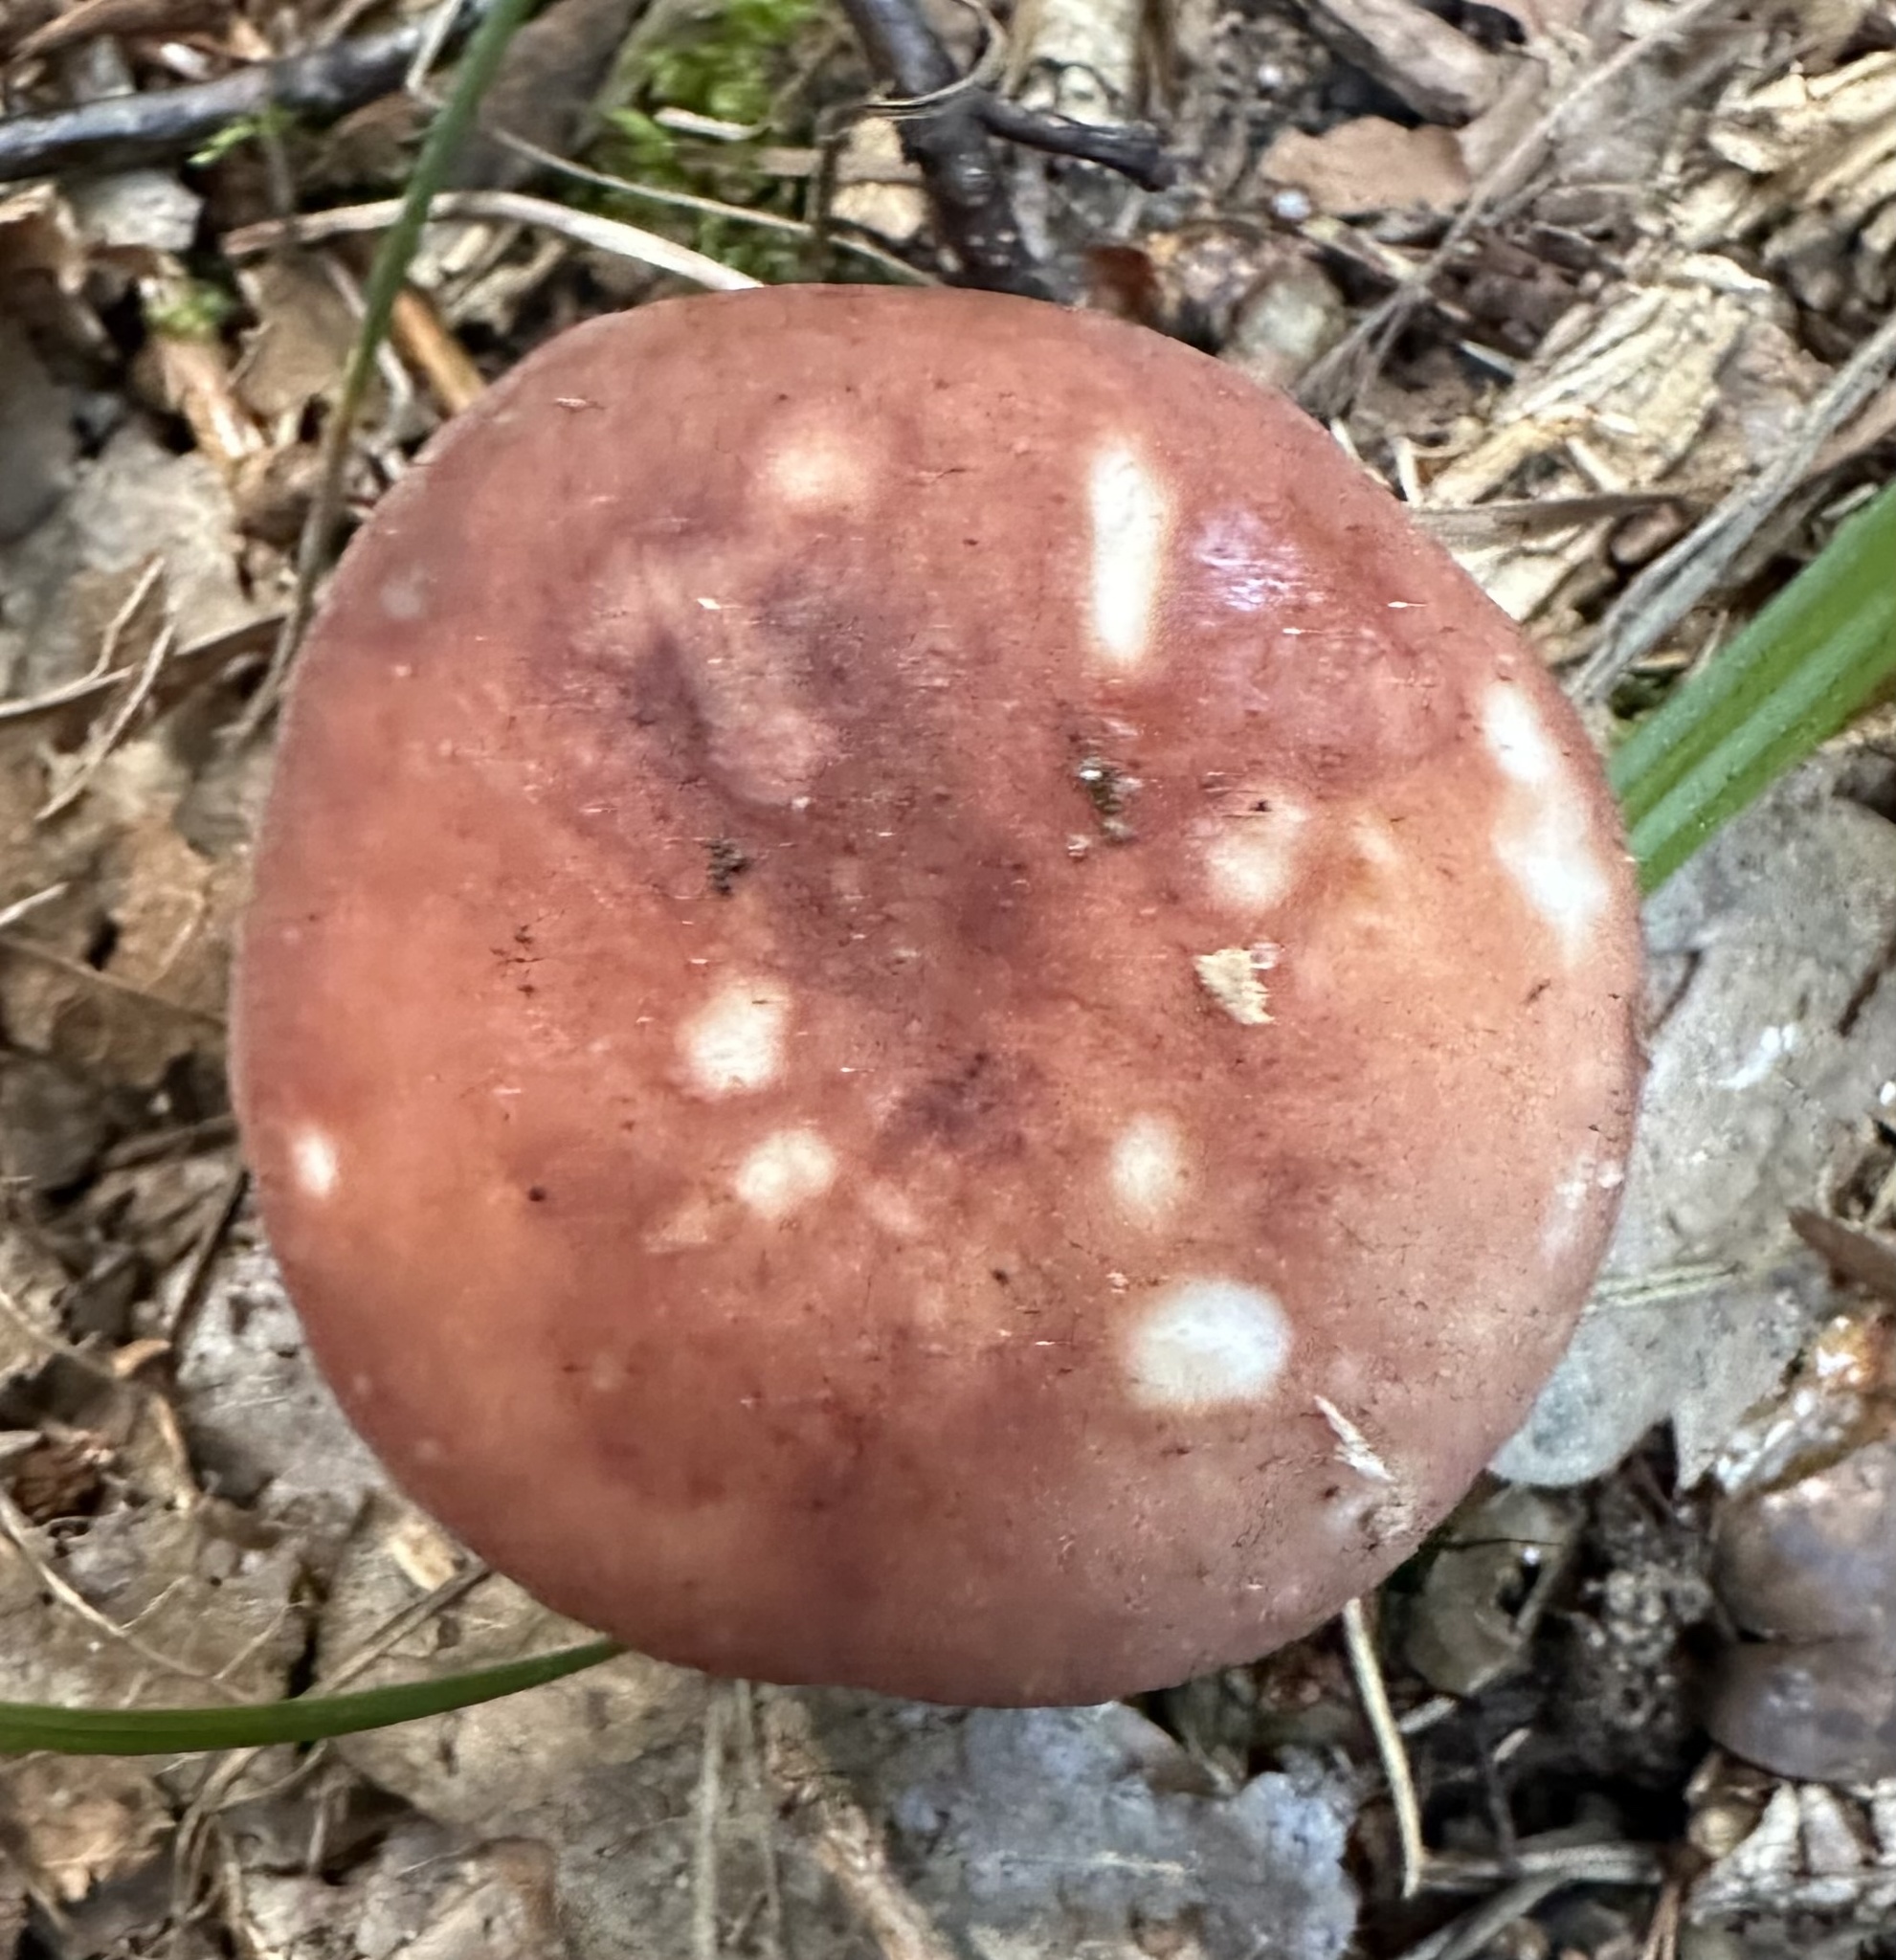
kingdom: Fungi
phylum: Basidiomycota
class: Agaricomycetes
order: Russulales
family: Russulaceae
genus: Russula
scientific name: Russula vesca
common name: Bare-toothed russula
